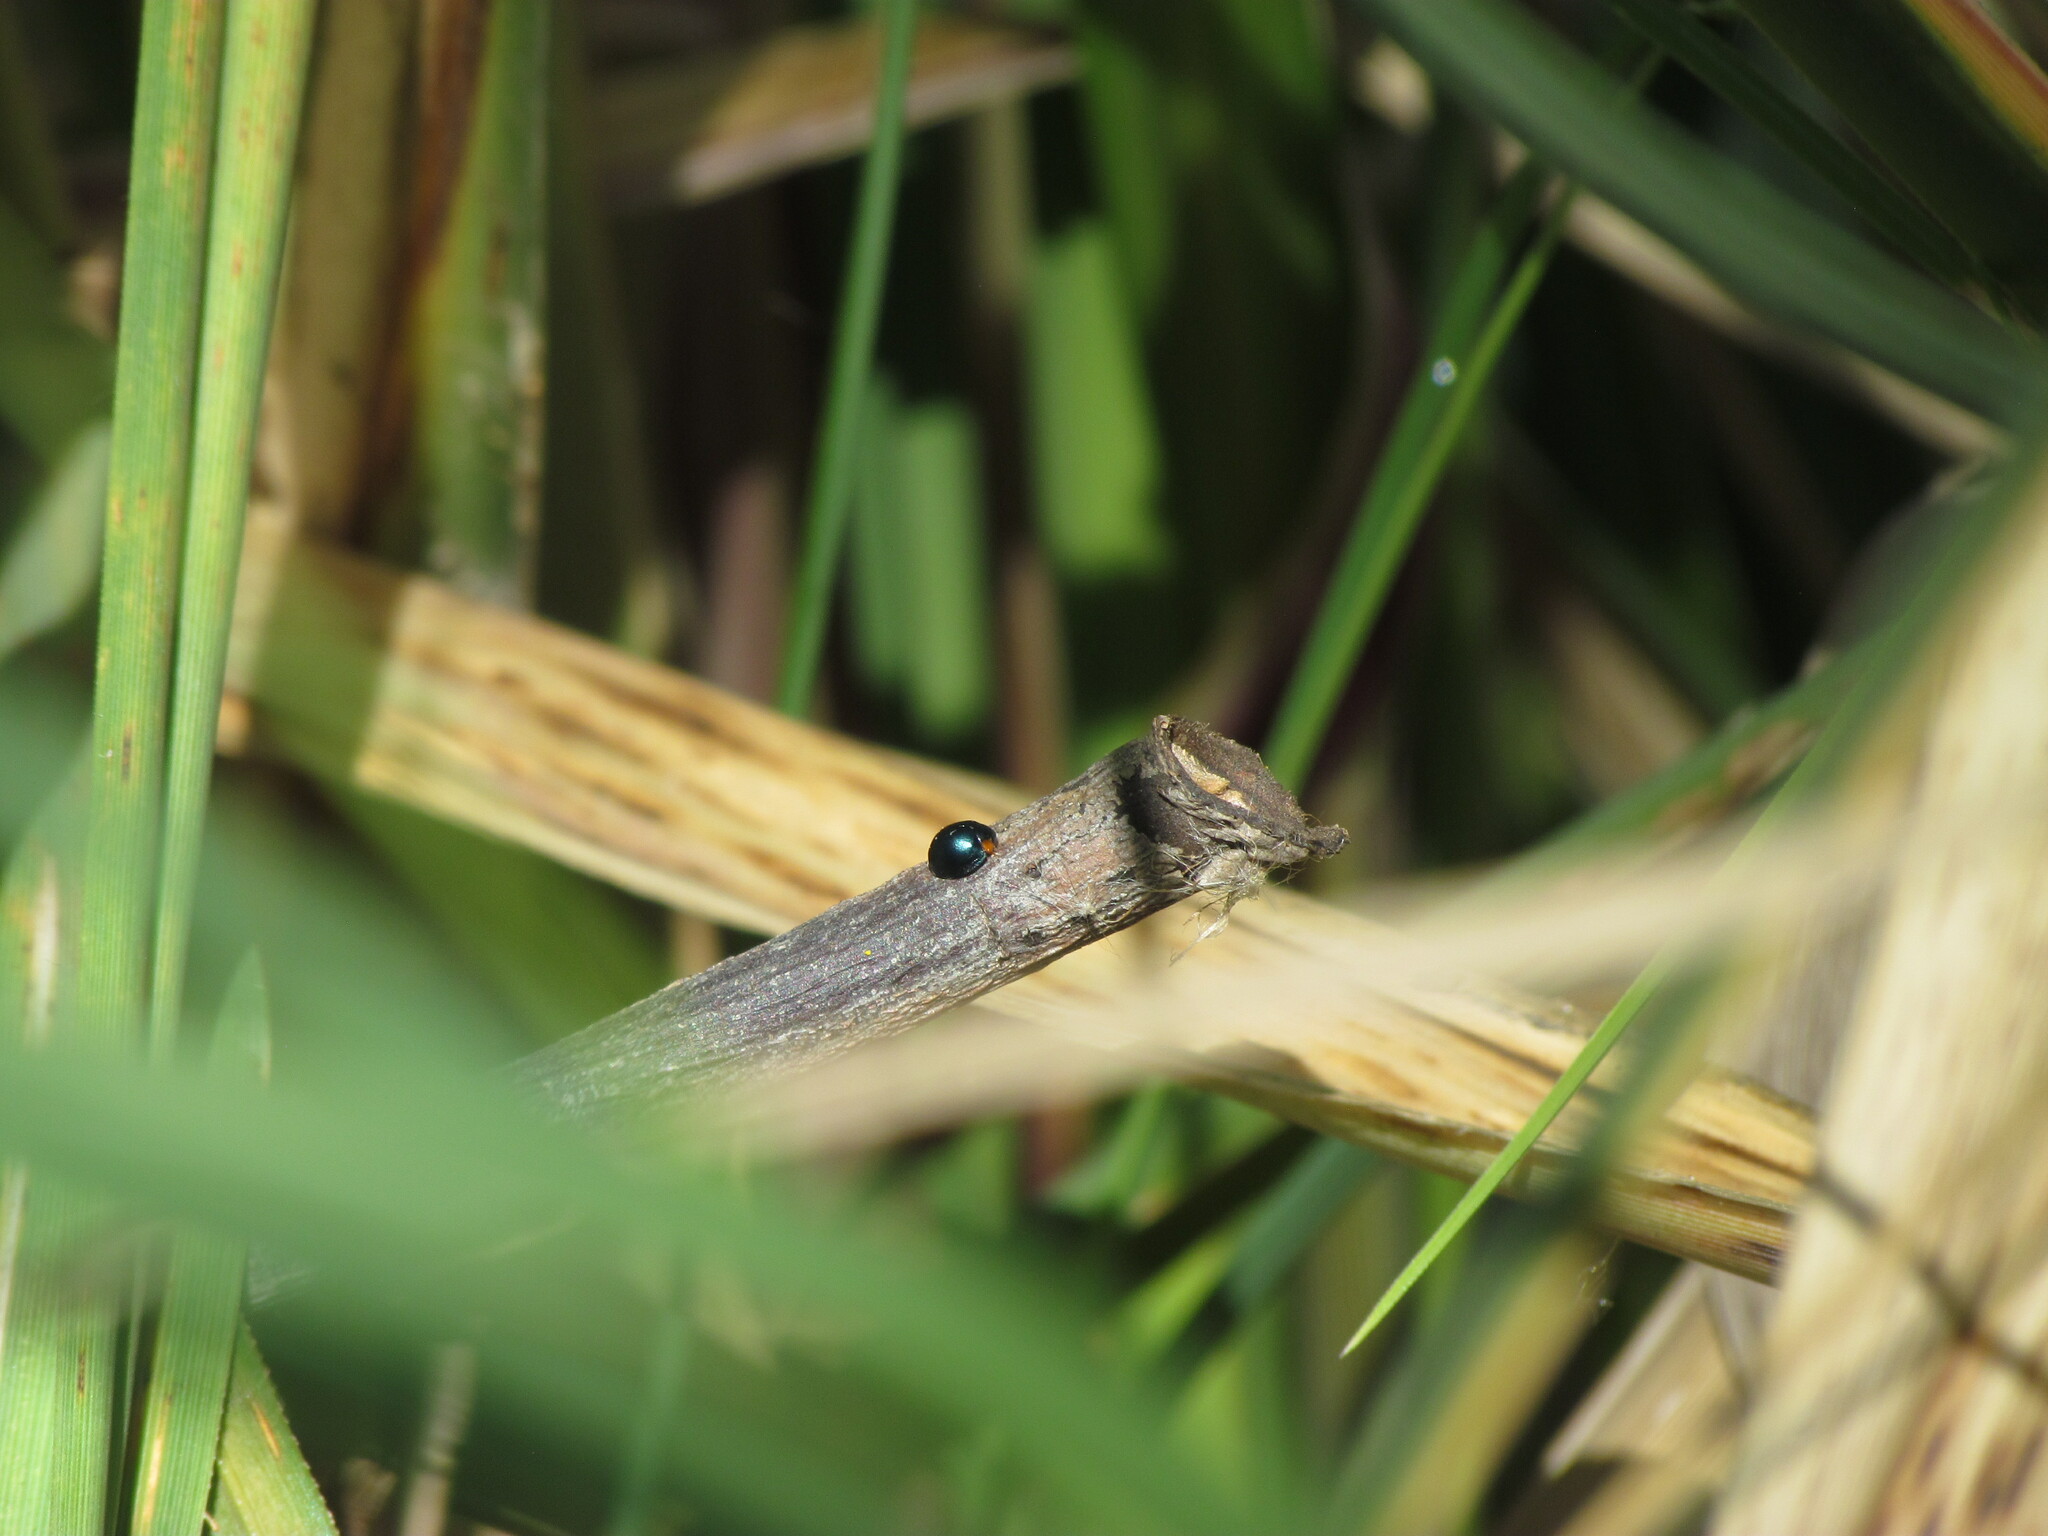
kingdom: Animalia
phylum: Arthropoda
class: Insecta
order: Coleoptera
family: Coccinellidae
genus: Curinus
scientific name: Curinus coeruleus
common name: Ladybird beetle
